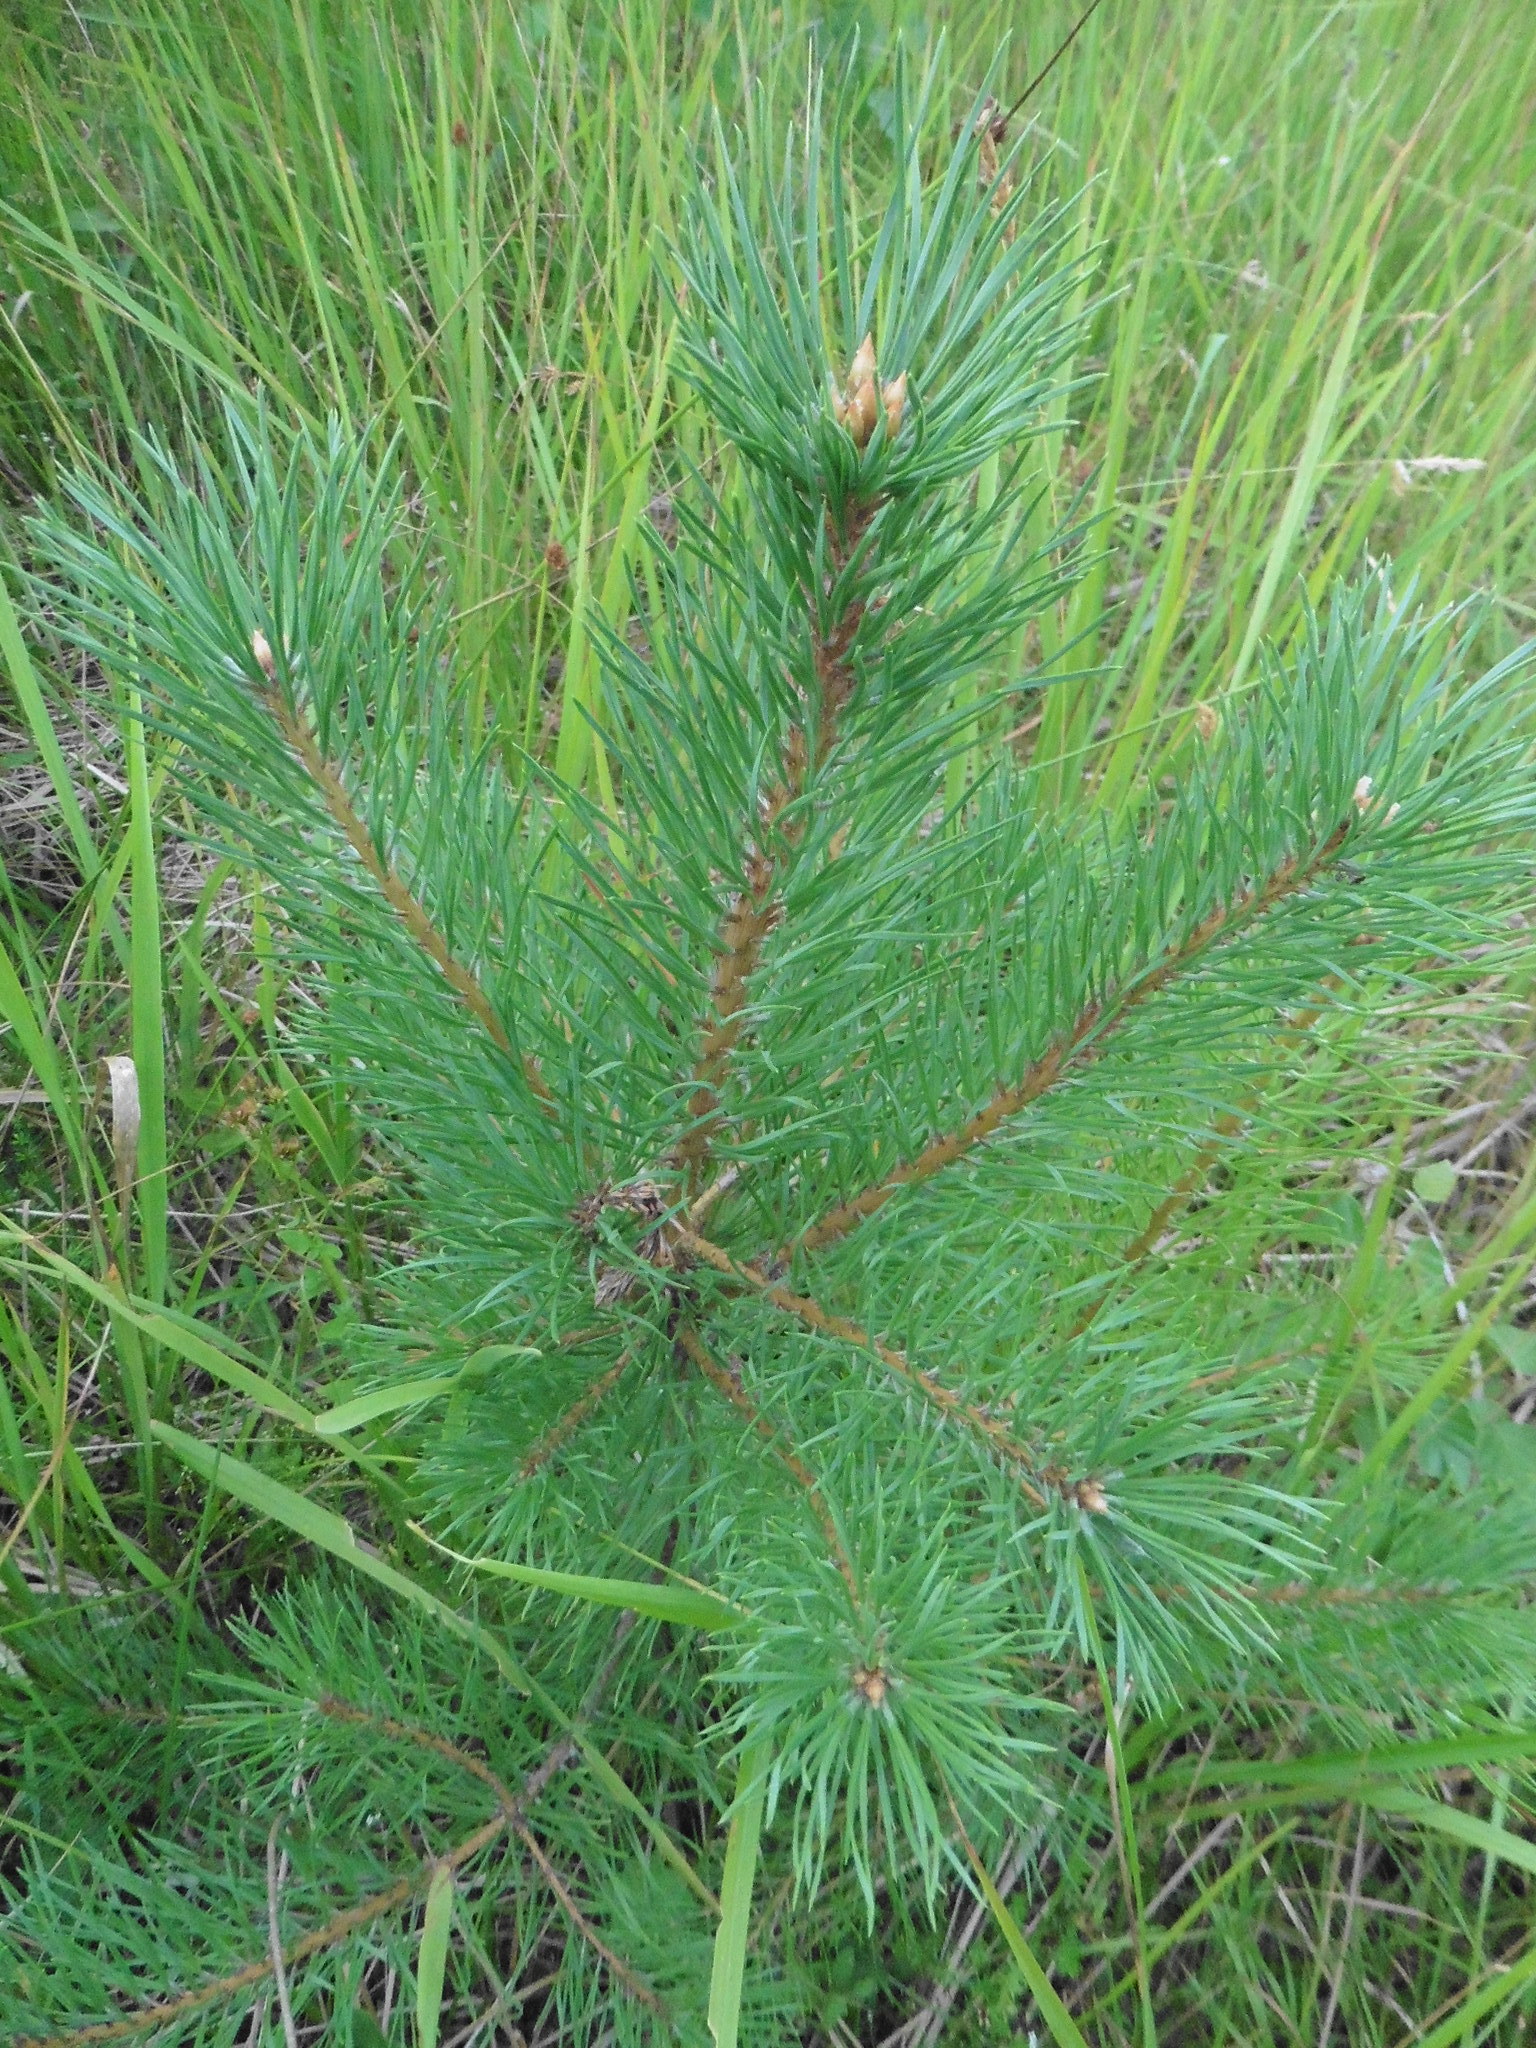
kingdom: Plantae
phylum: Tracheophyta
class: Pinopsida
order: Pinales
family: Pinaceae
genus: Pinus
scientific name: Pinus sylvestris
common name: Scots pine
